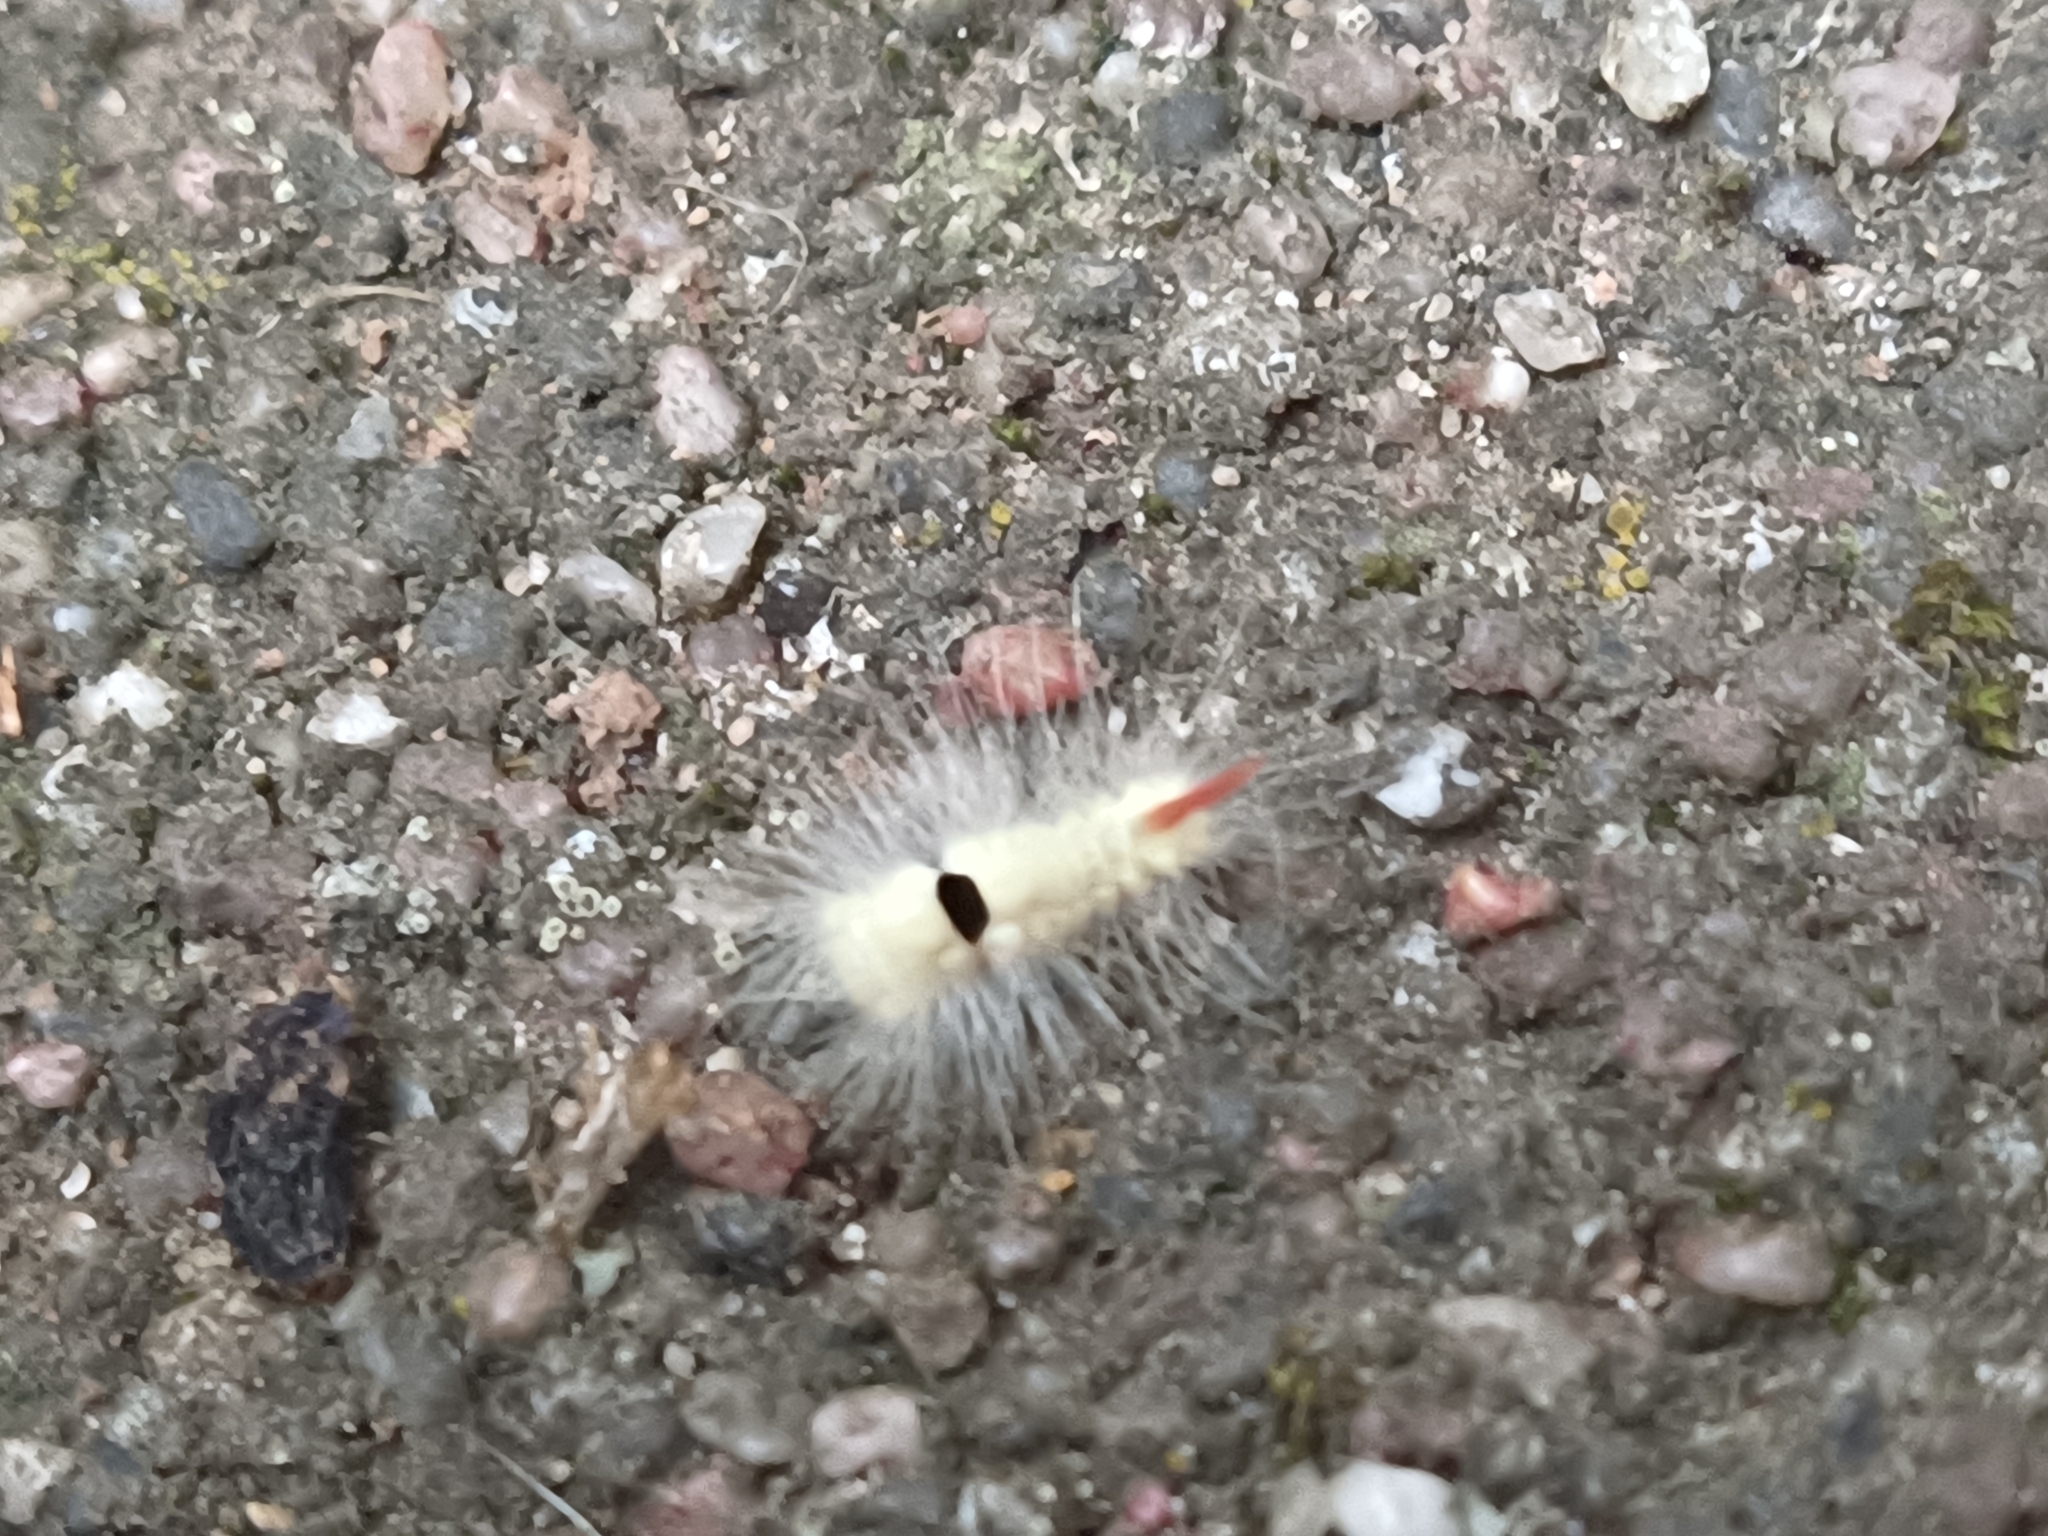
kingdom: Animalia
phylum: Arthropoda
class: Insecta
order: Lepidoptera
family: Erebidae
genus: Calliteara
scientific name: Calliteara pudibunda
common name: Pale tussock
